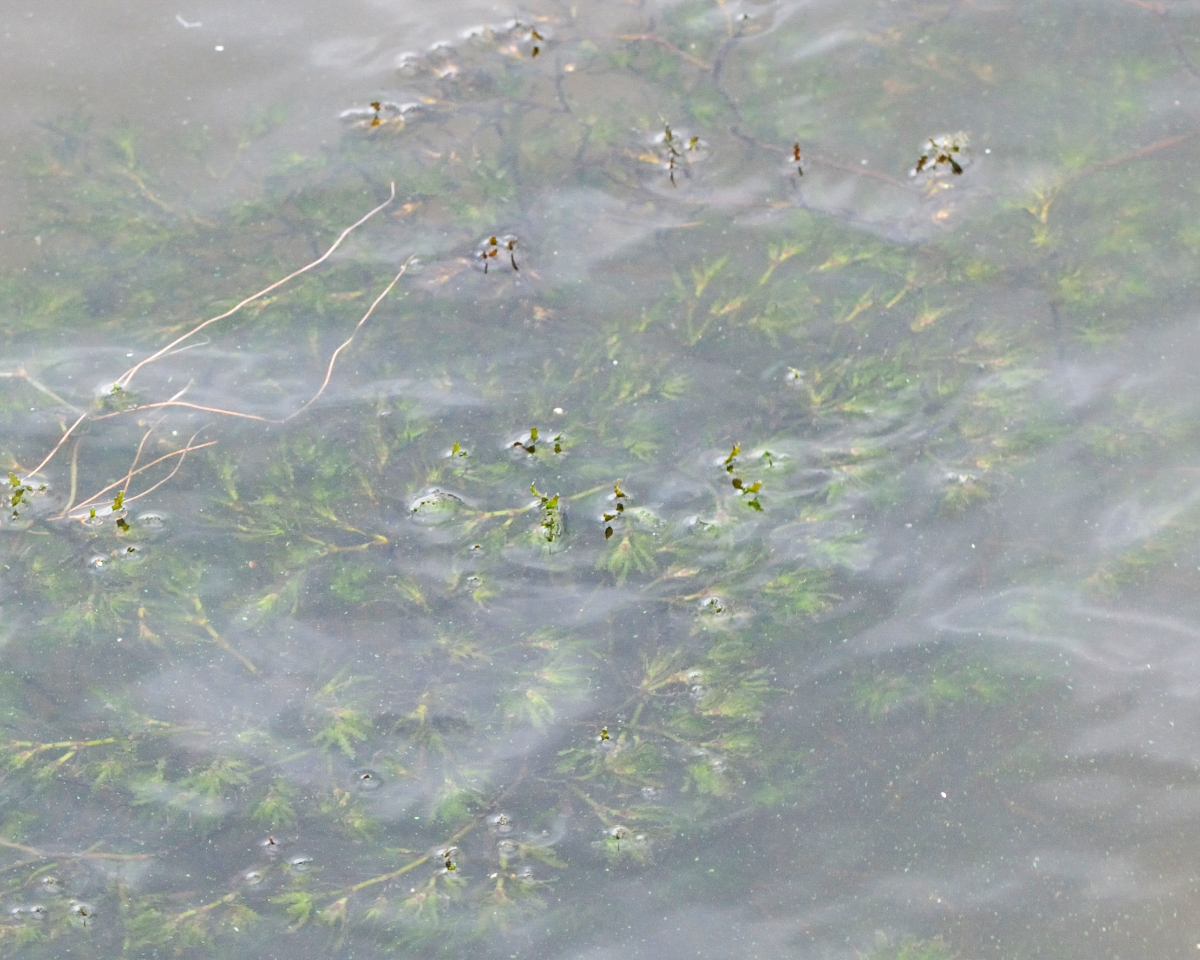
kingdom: Plantae
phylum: Tracheophyta
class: Liliopsida
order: Alismatales
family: Hydrocharitaceae
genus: Najas
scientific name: Najas marina
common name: Holly-leaved naiad
